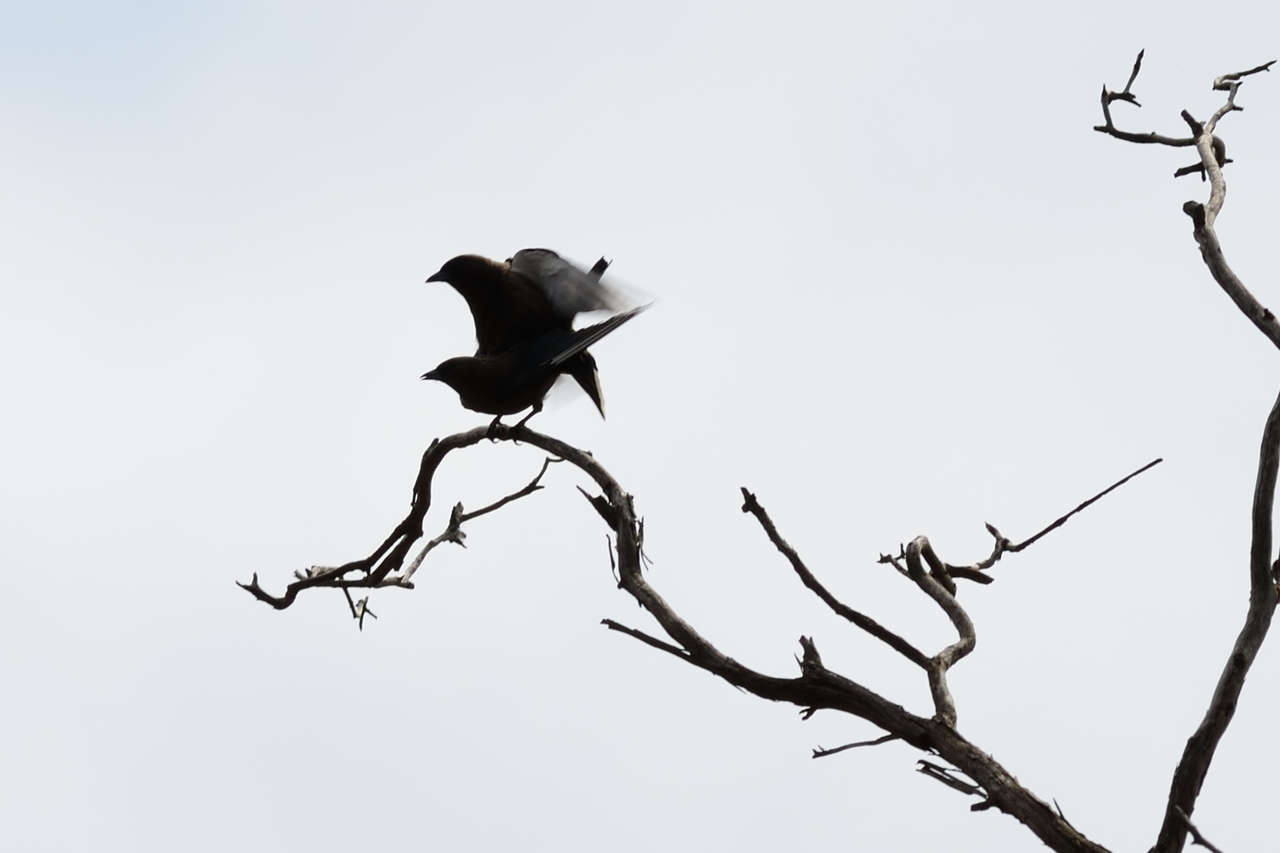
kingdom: Animalia
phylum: Chordata
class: Aves
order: Passeriformes
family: Artamidae
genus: Artamus
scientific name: Artamus cyanopterus
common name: Dusky woodswallow
